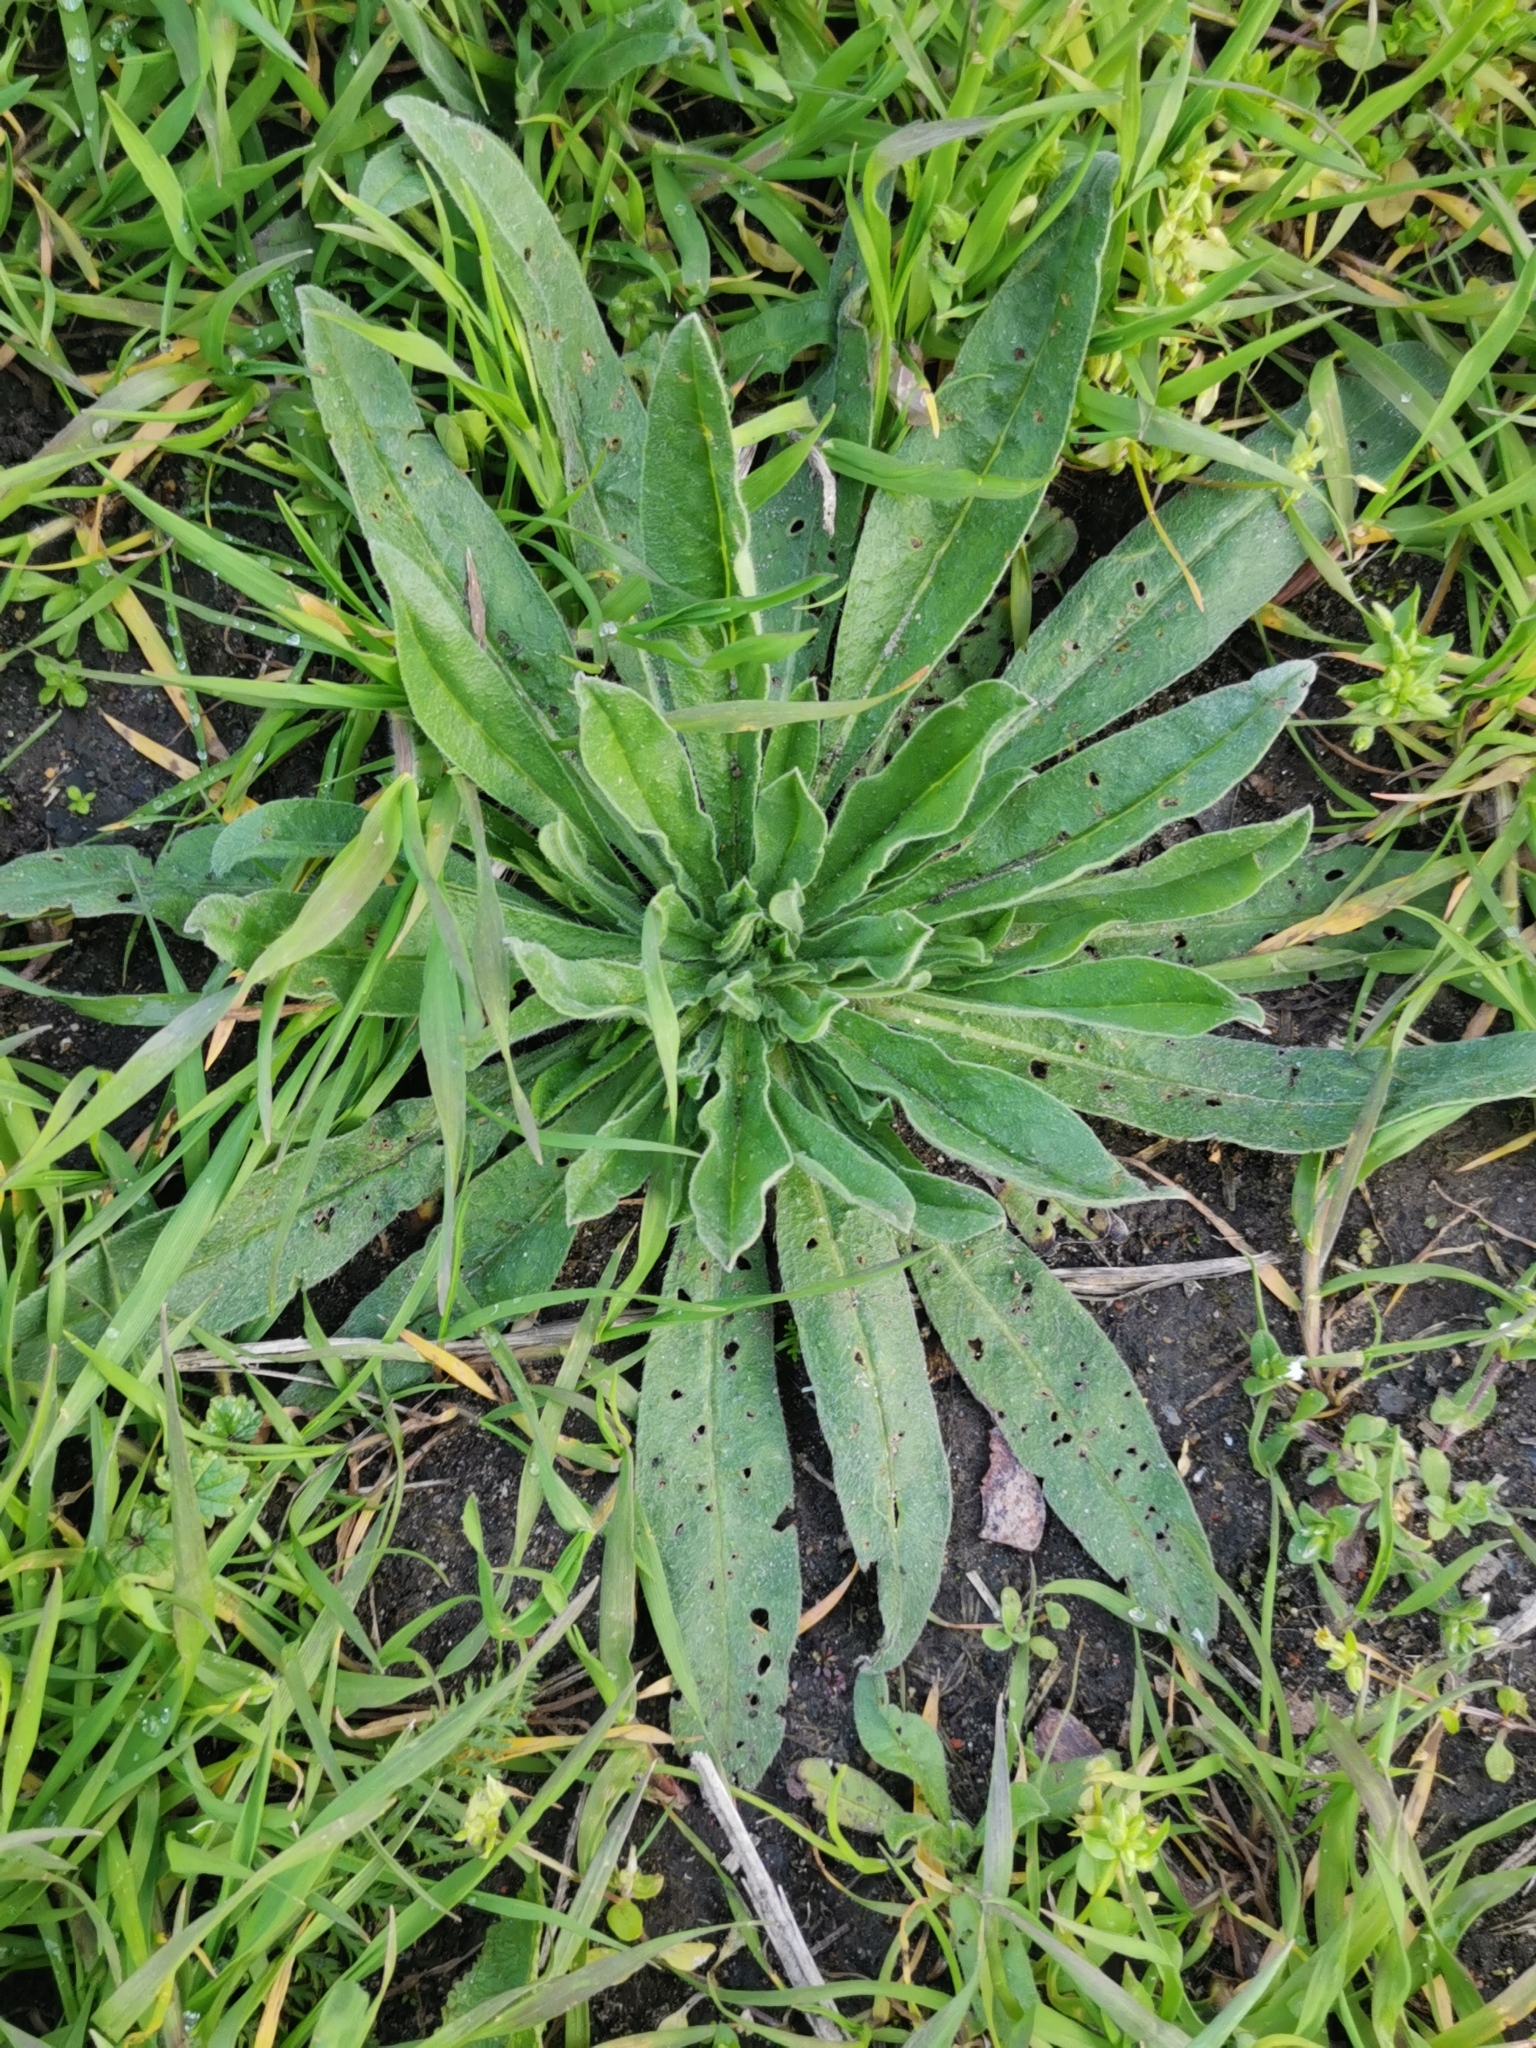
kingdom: Plantae
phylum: Tracheophyta
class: Magnoliopsida
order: Boraginales
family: Boraginaceae
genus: Echium
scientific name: Echium vulgare
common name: Common viper's bugloss
